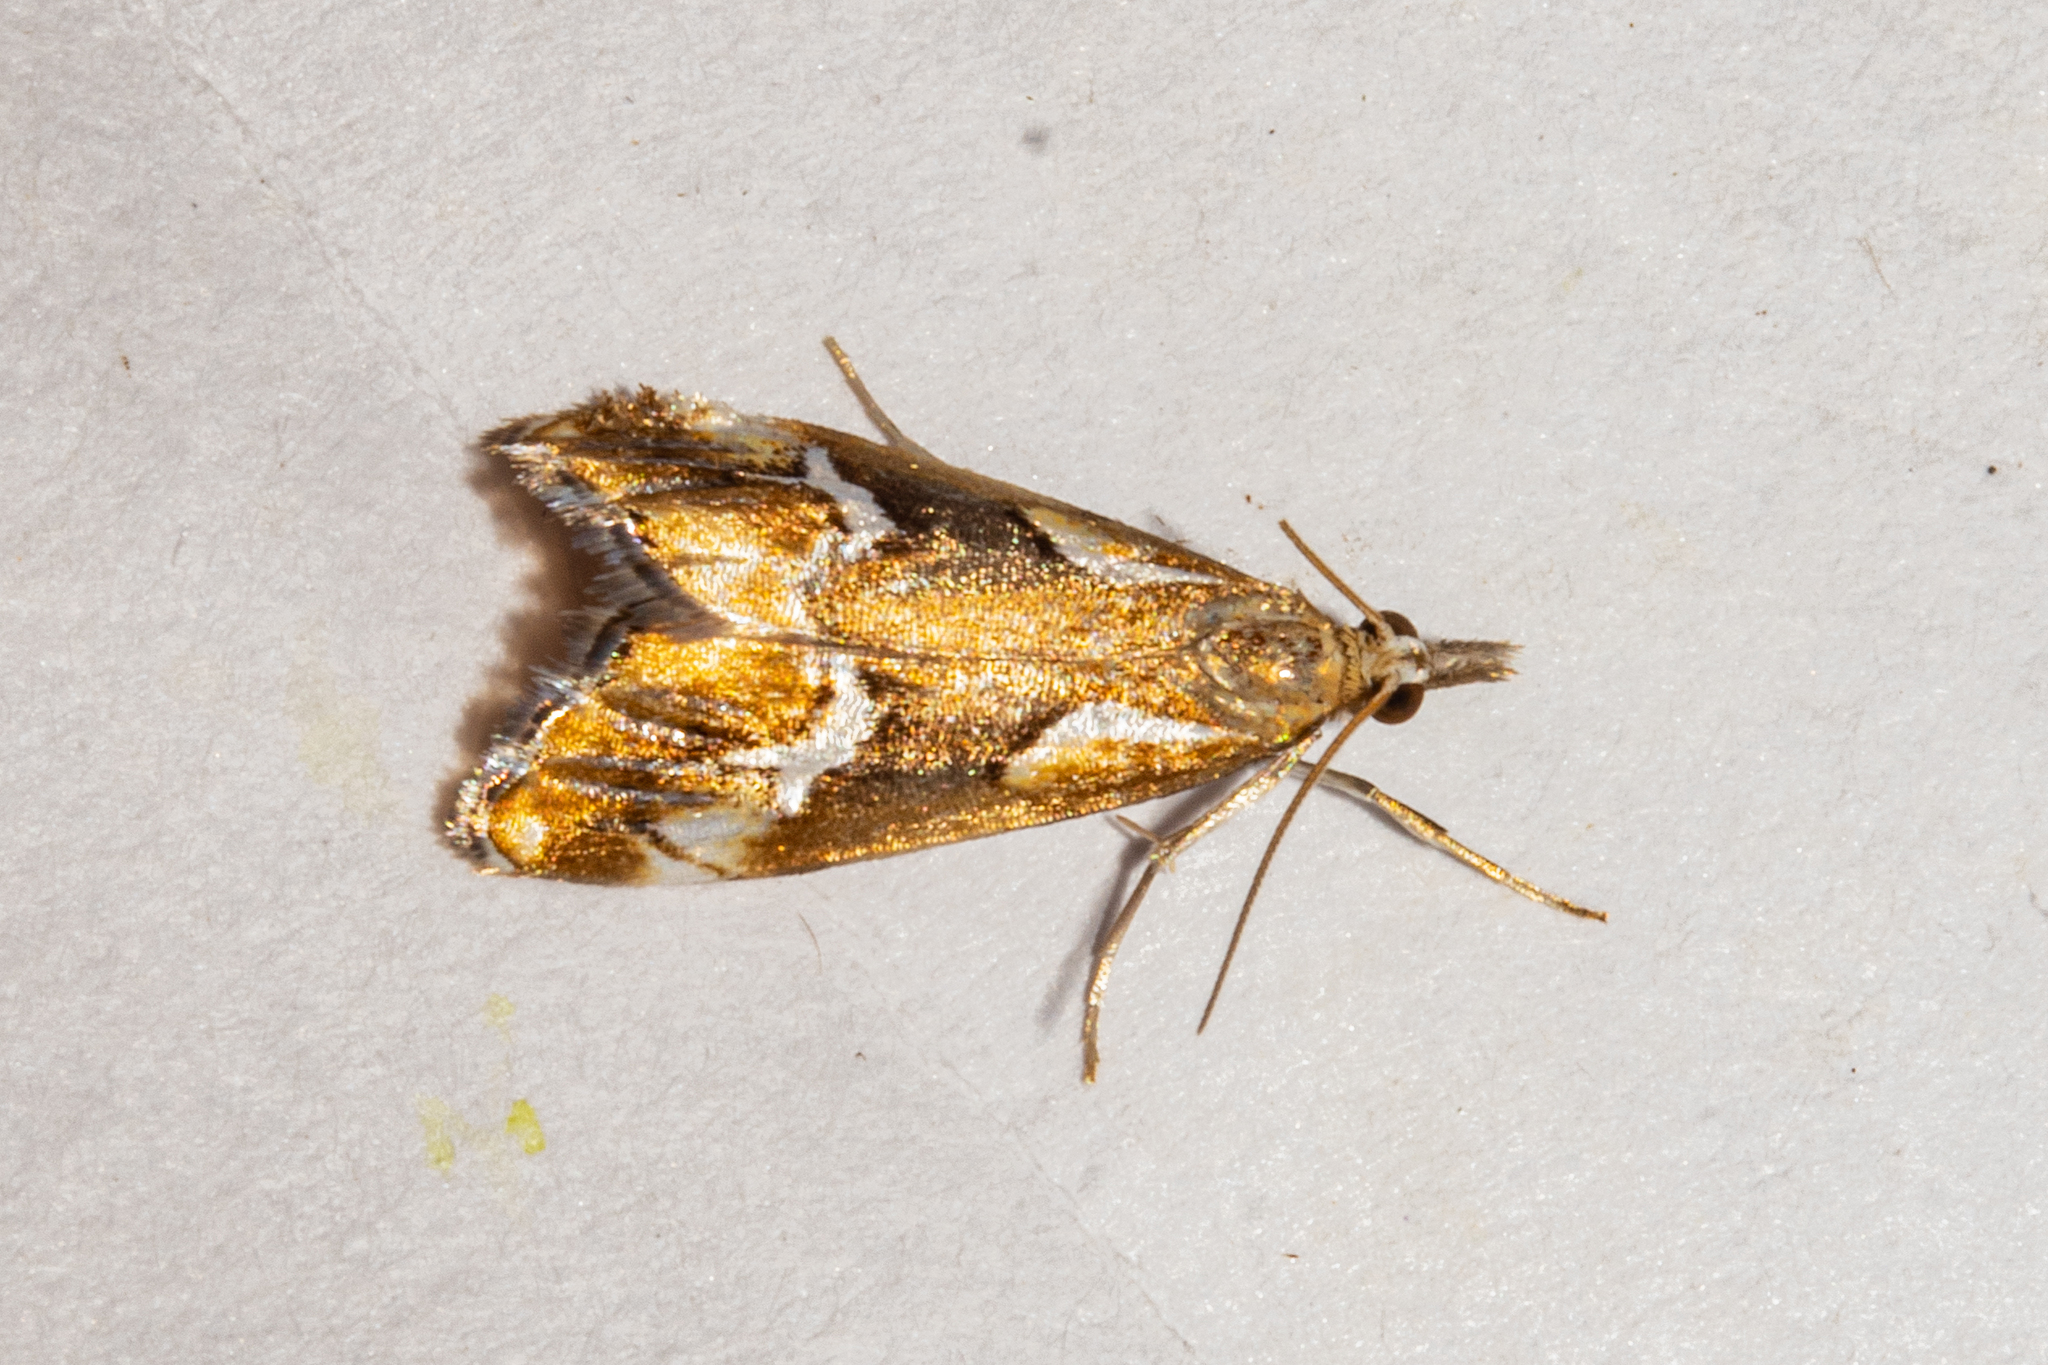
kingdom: Animalia
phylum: Arthropoda
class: Insecta
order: Lepidoptera
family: Crambidae
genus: Glaucocharis
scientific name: Glaucocharis interruptus
